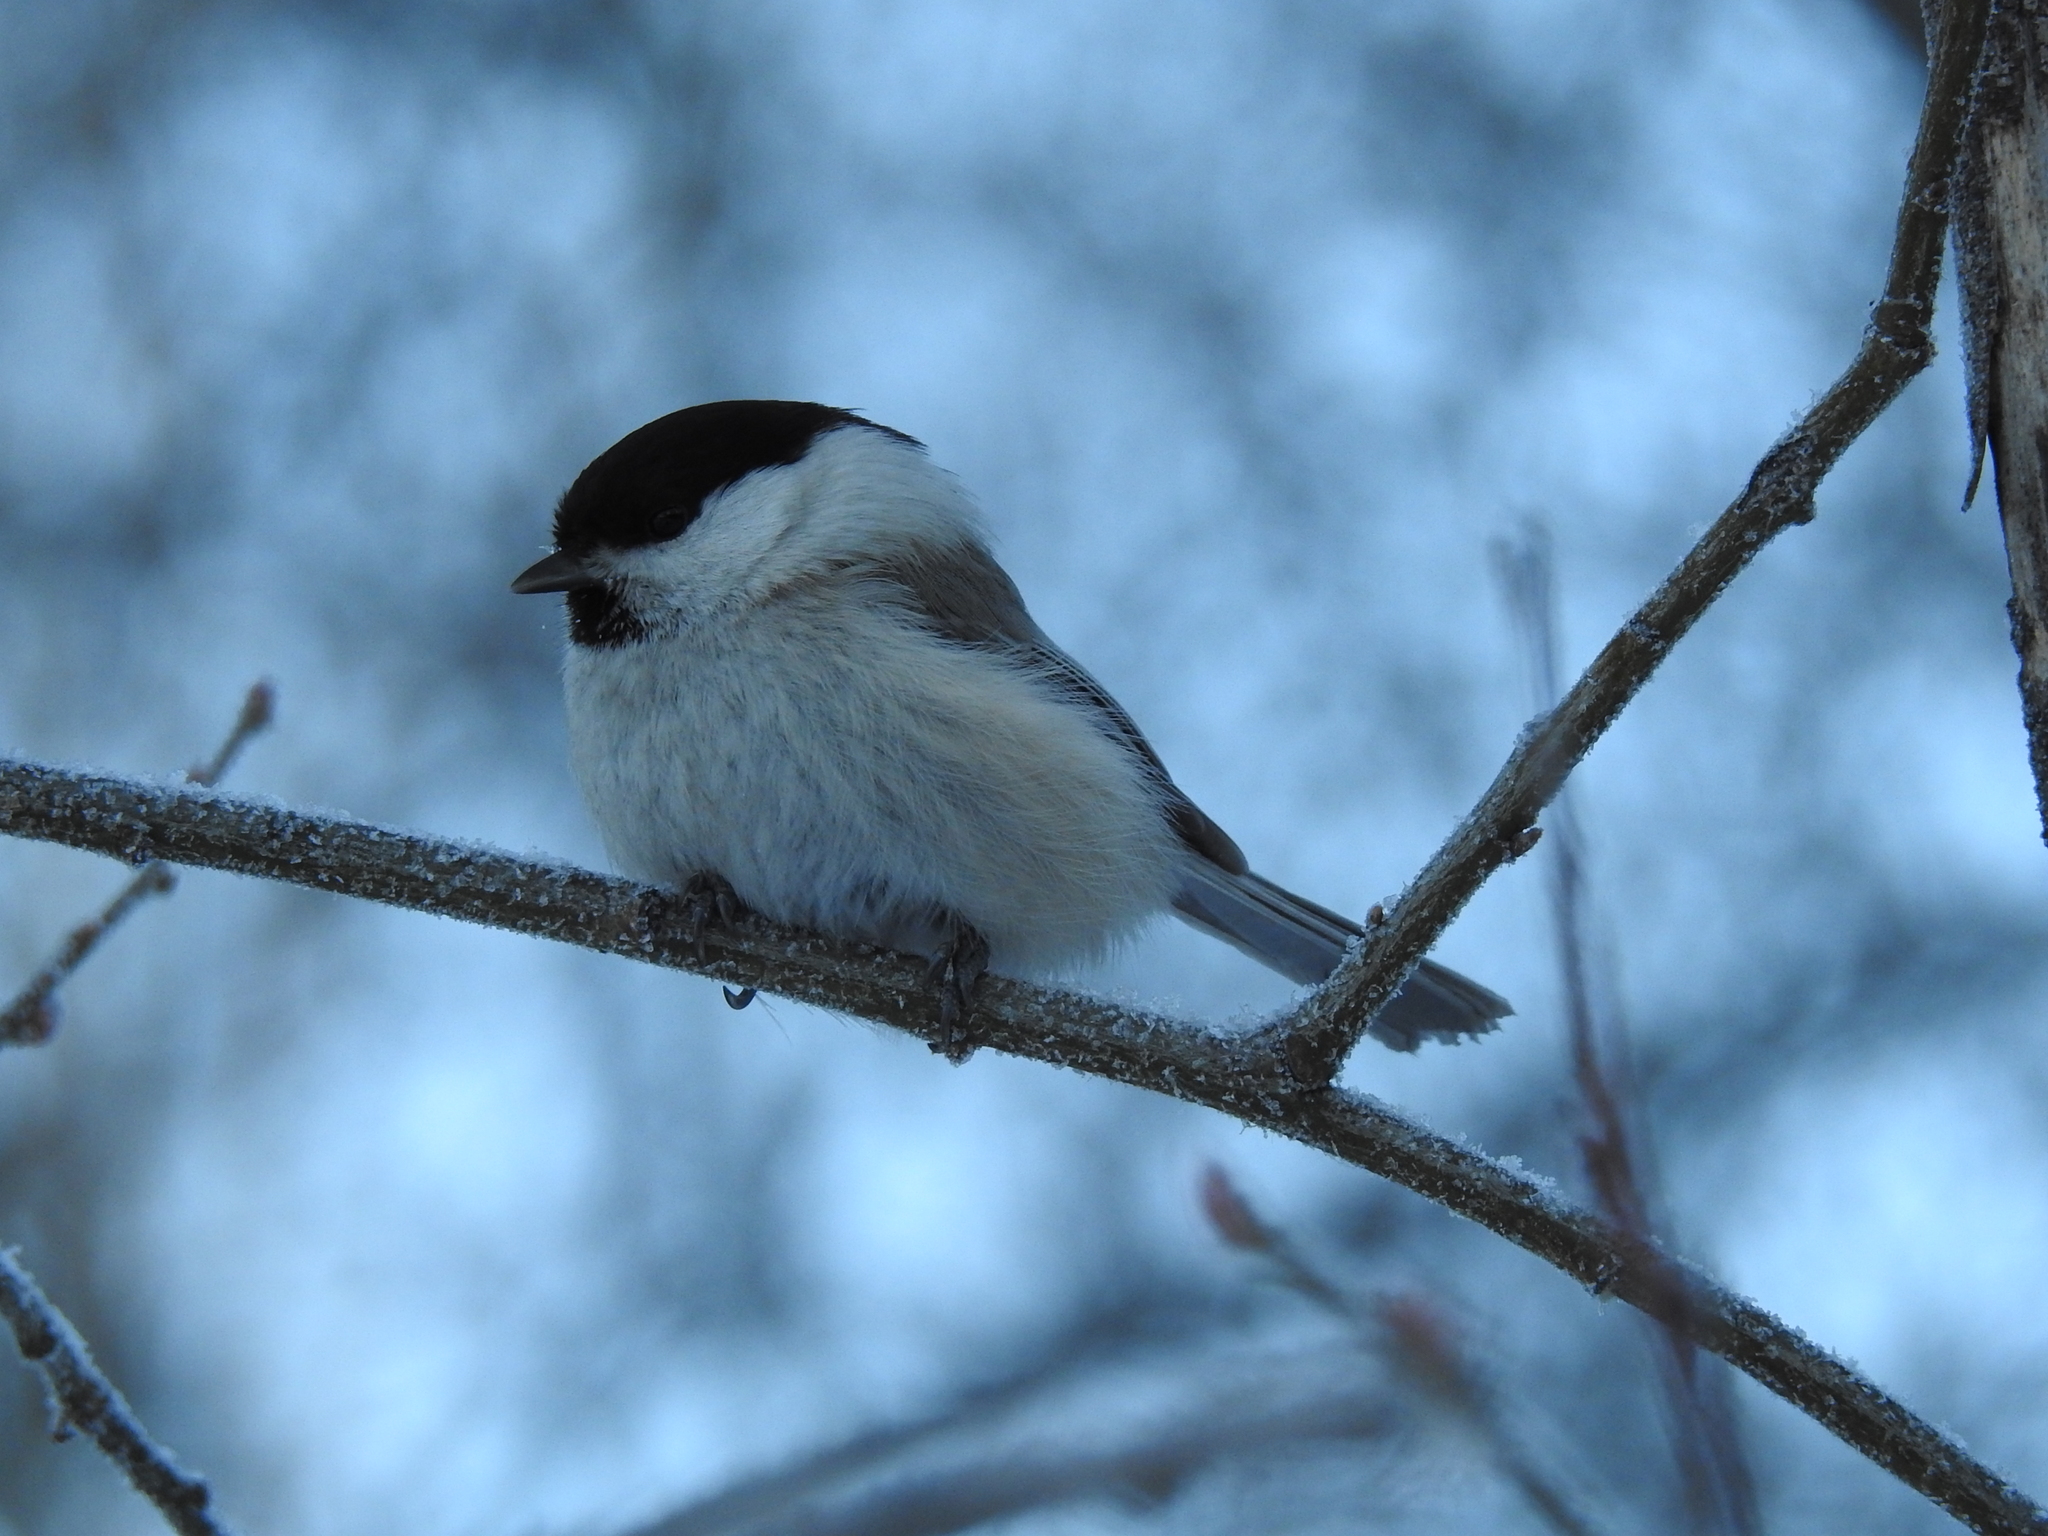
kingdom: Animalia
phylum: Chordata
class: Aves
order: Passeriformes
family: Paridae
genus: Poecile
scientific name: Poecile montanus
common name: Willow tit
